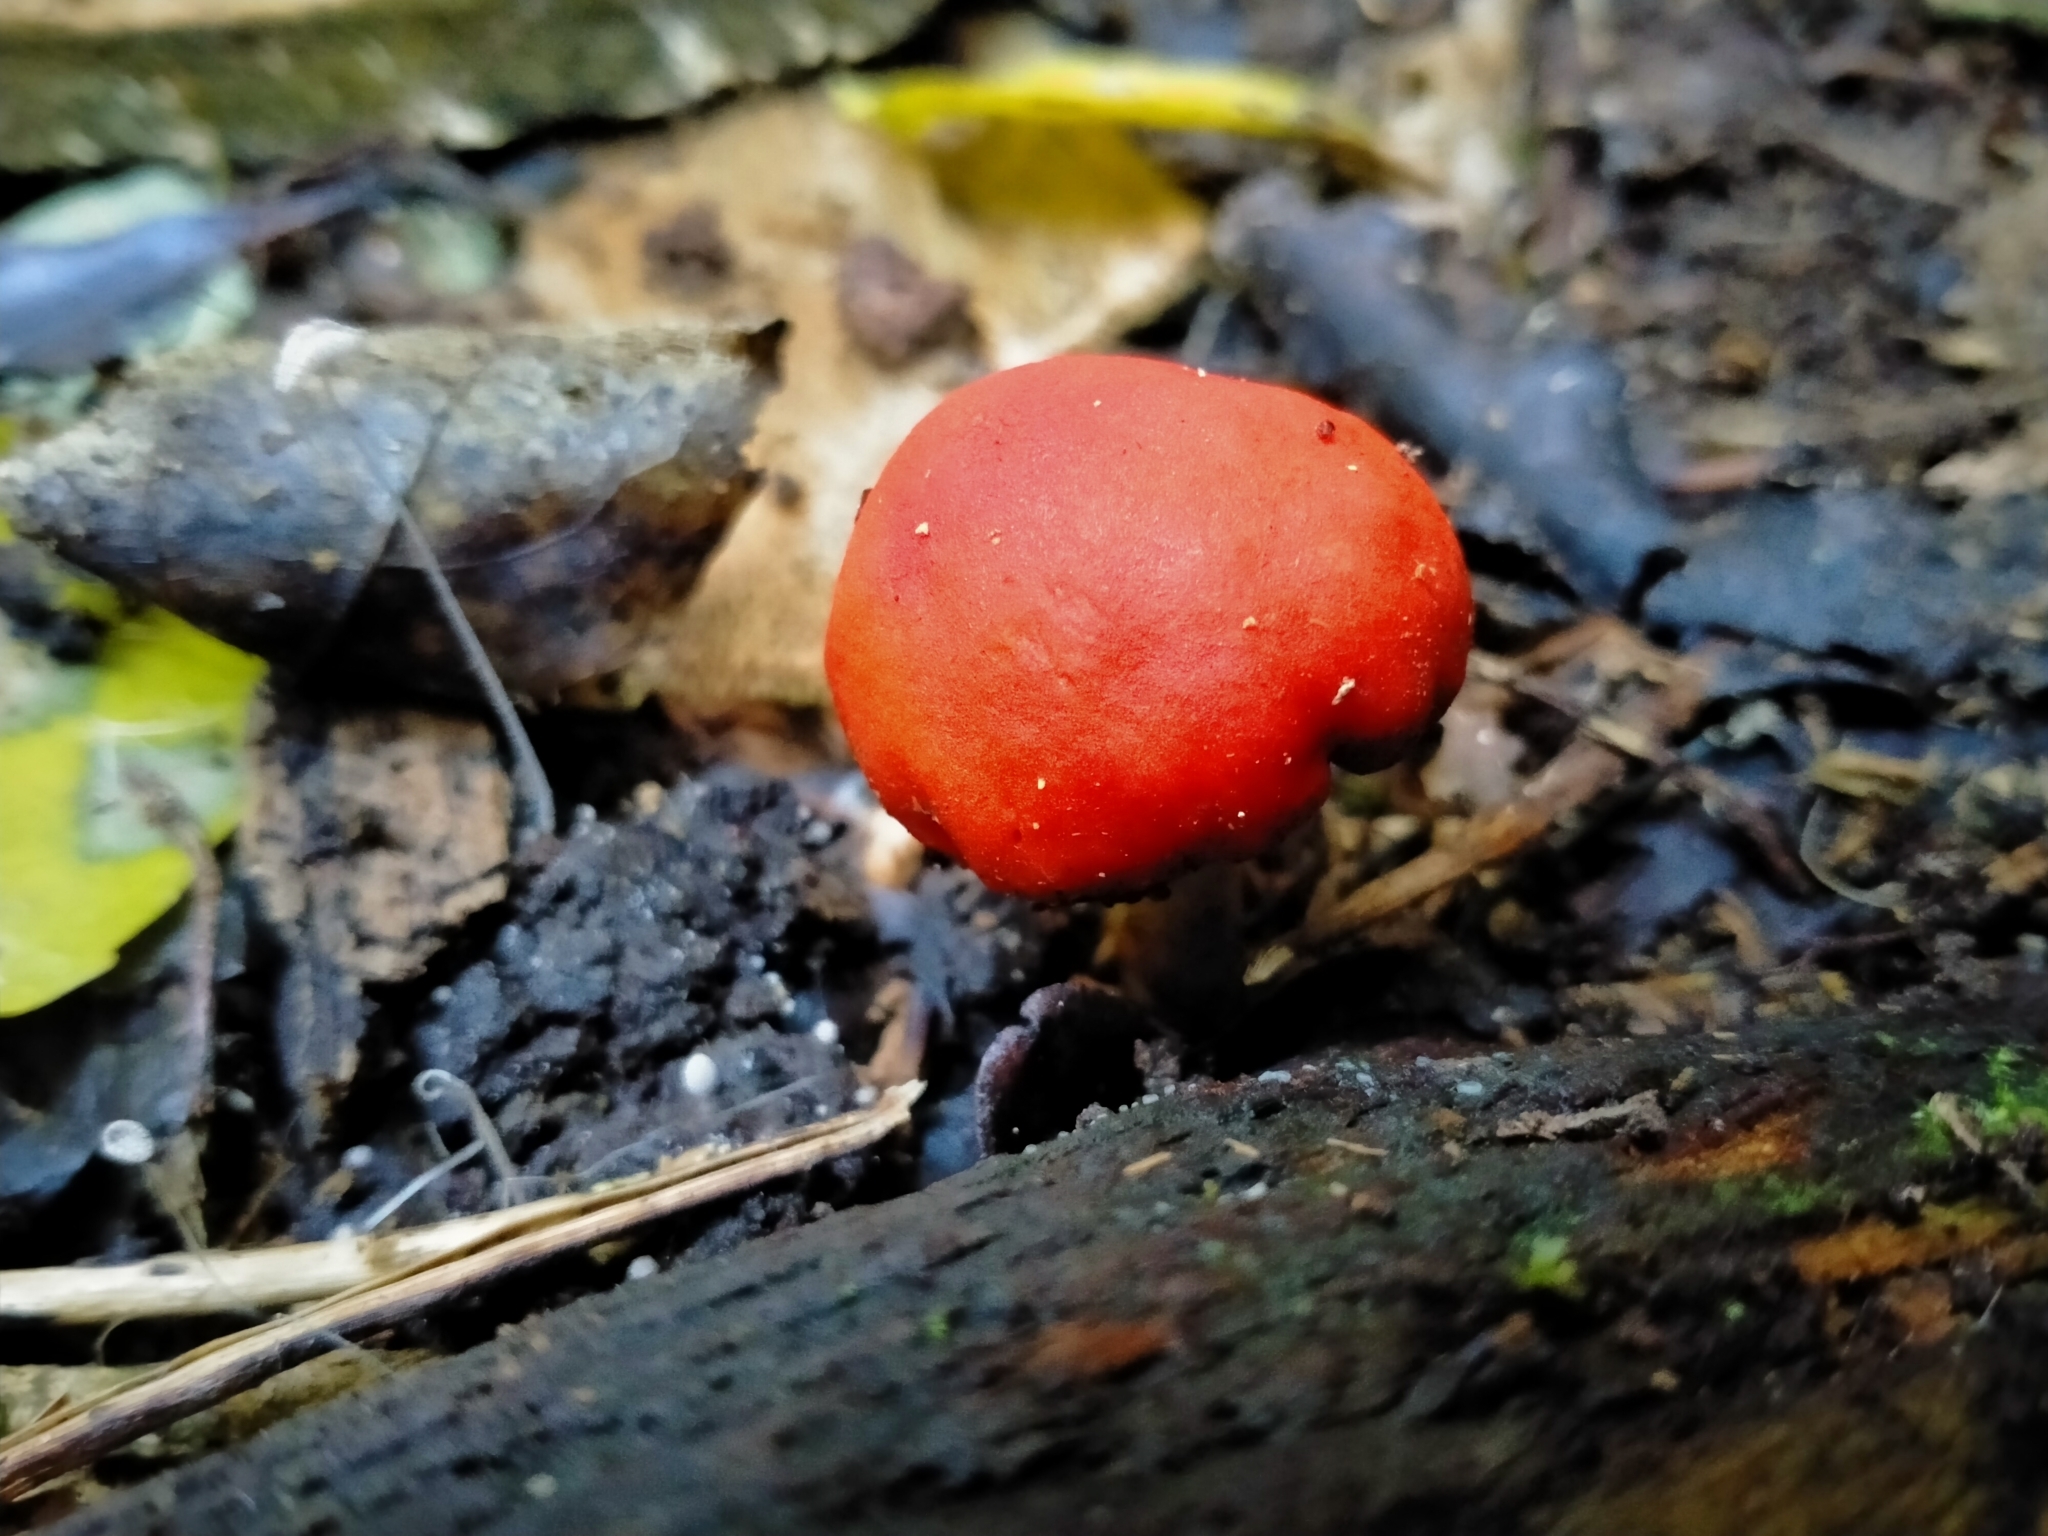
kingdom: Fungi
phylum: Basidiomycota
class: Agaricomycetes
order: Agaricales
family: Strophariaceae
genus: Leratiomyces
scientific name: Leratiomyces erythrocephalus
